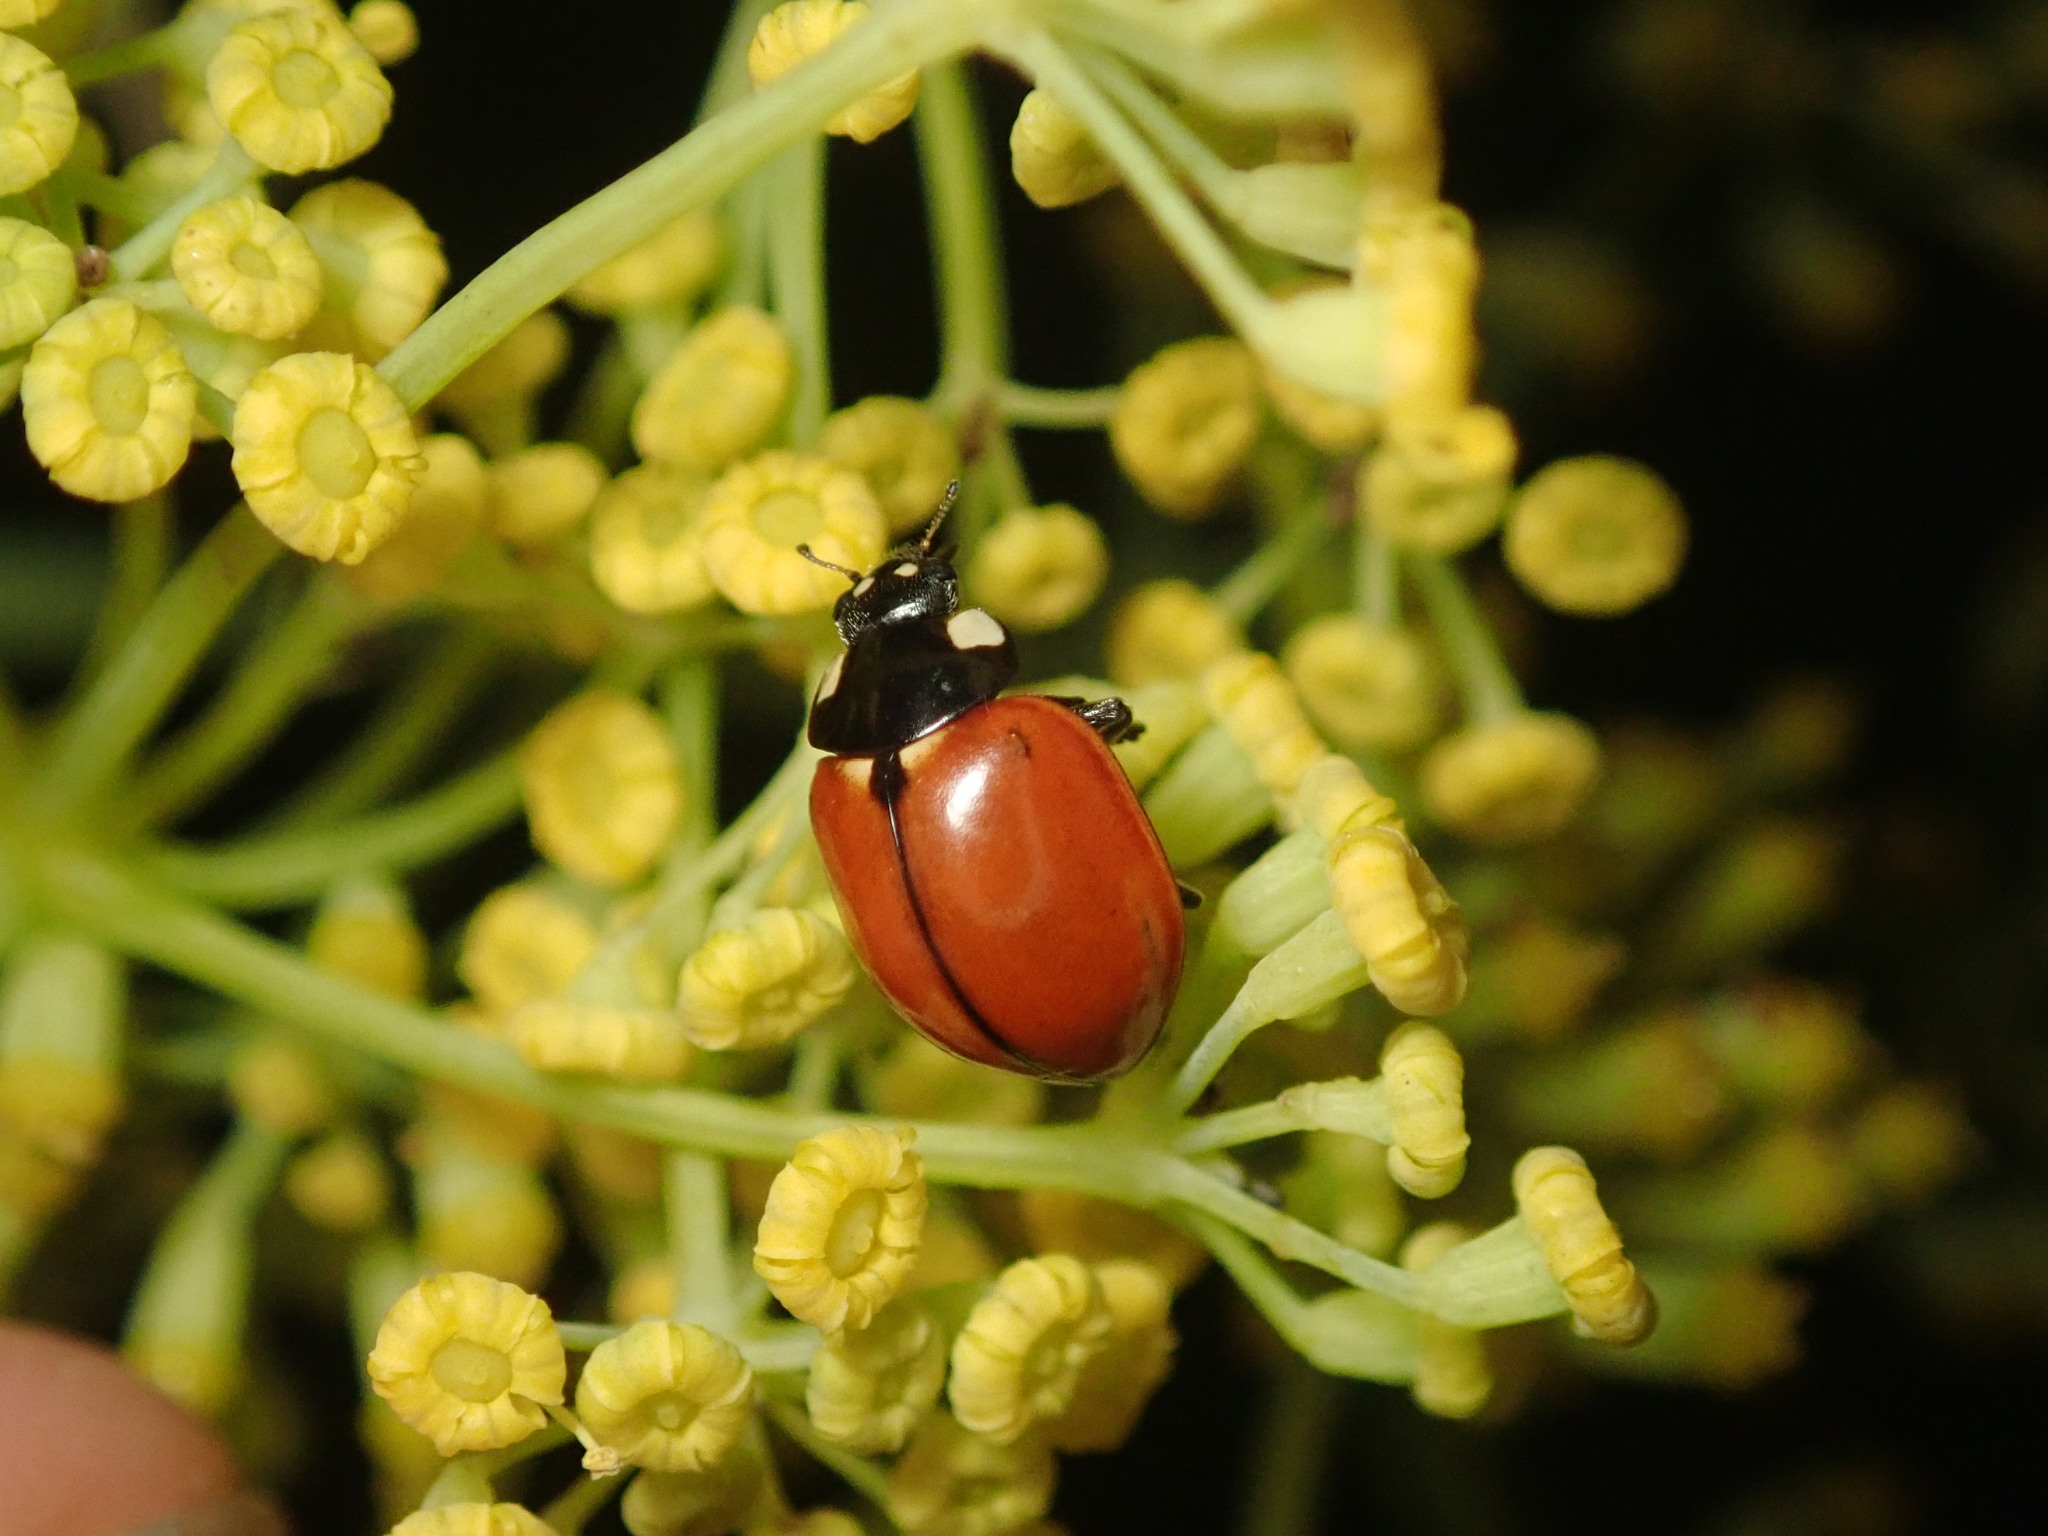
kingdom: Animalia
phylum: Arthropoda
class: Insecta
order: Coleoptera
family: Coccinellidae
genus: Coccinella
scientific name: Coccinella californica
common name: Lady beetle
